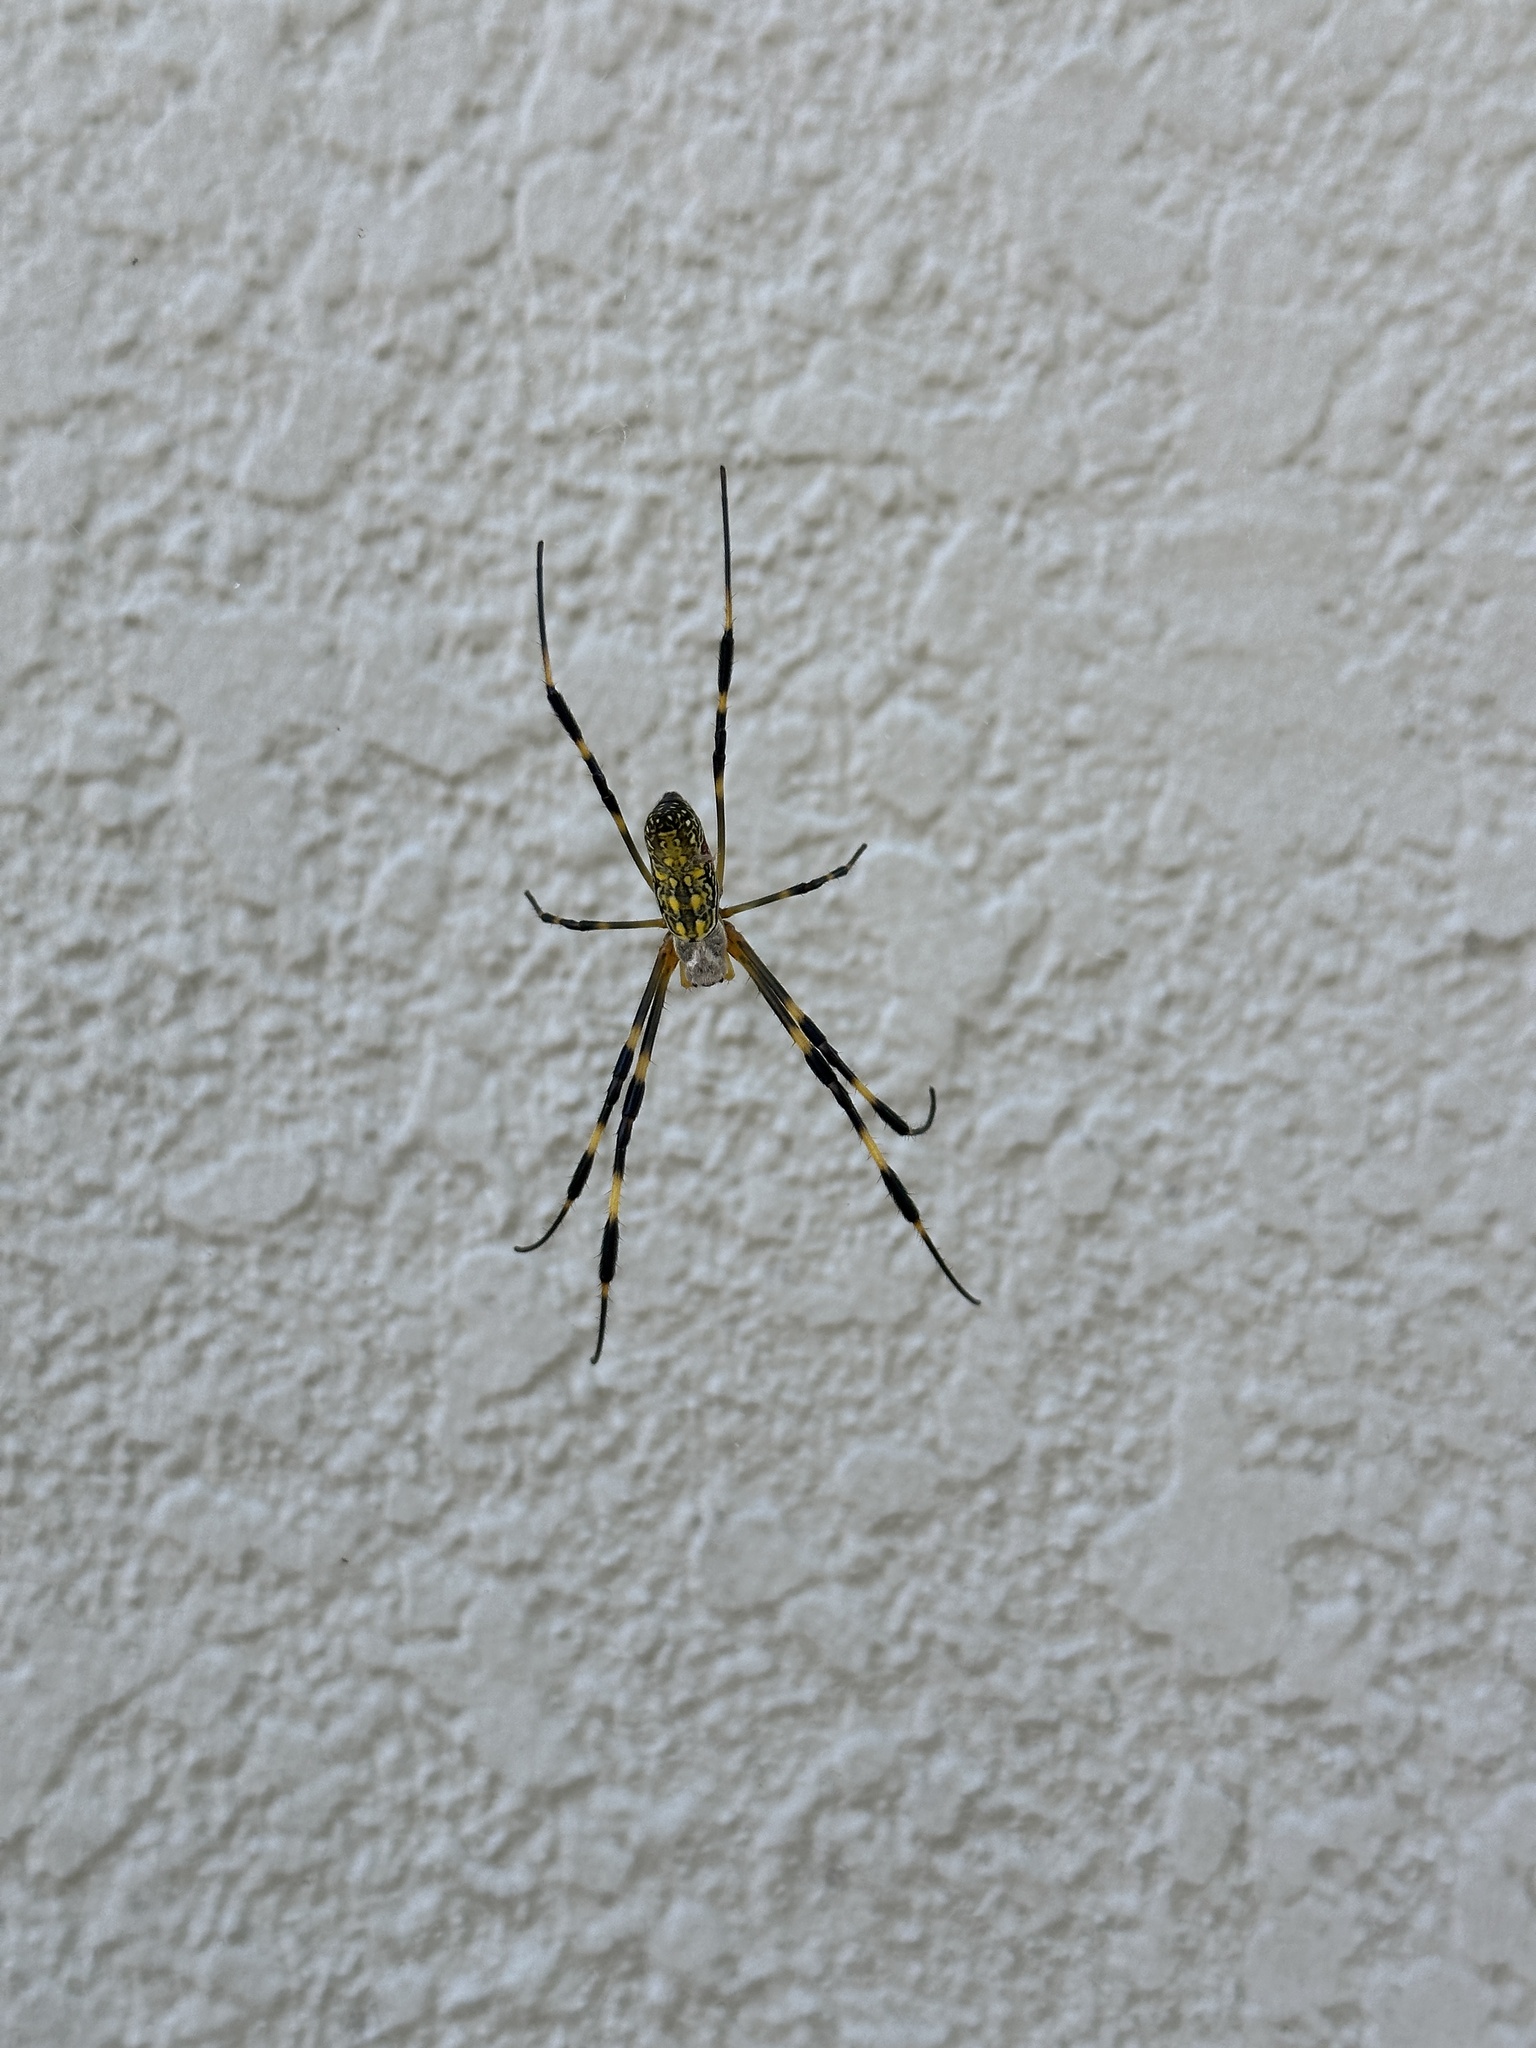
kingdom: Animalia
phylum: Arthropoda
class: Arachnida
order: Araneae
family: Araneidae
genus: Trichonephila
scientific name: Trichonephila clavata
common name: Jorō spider
